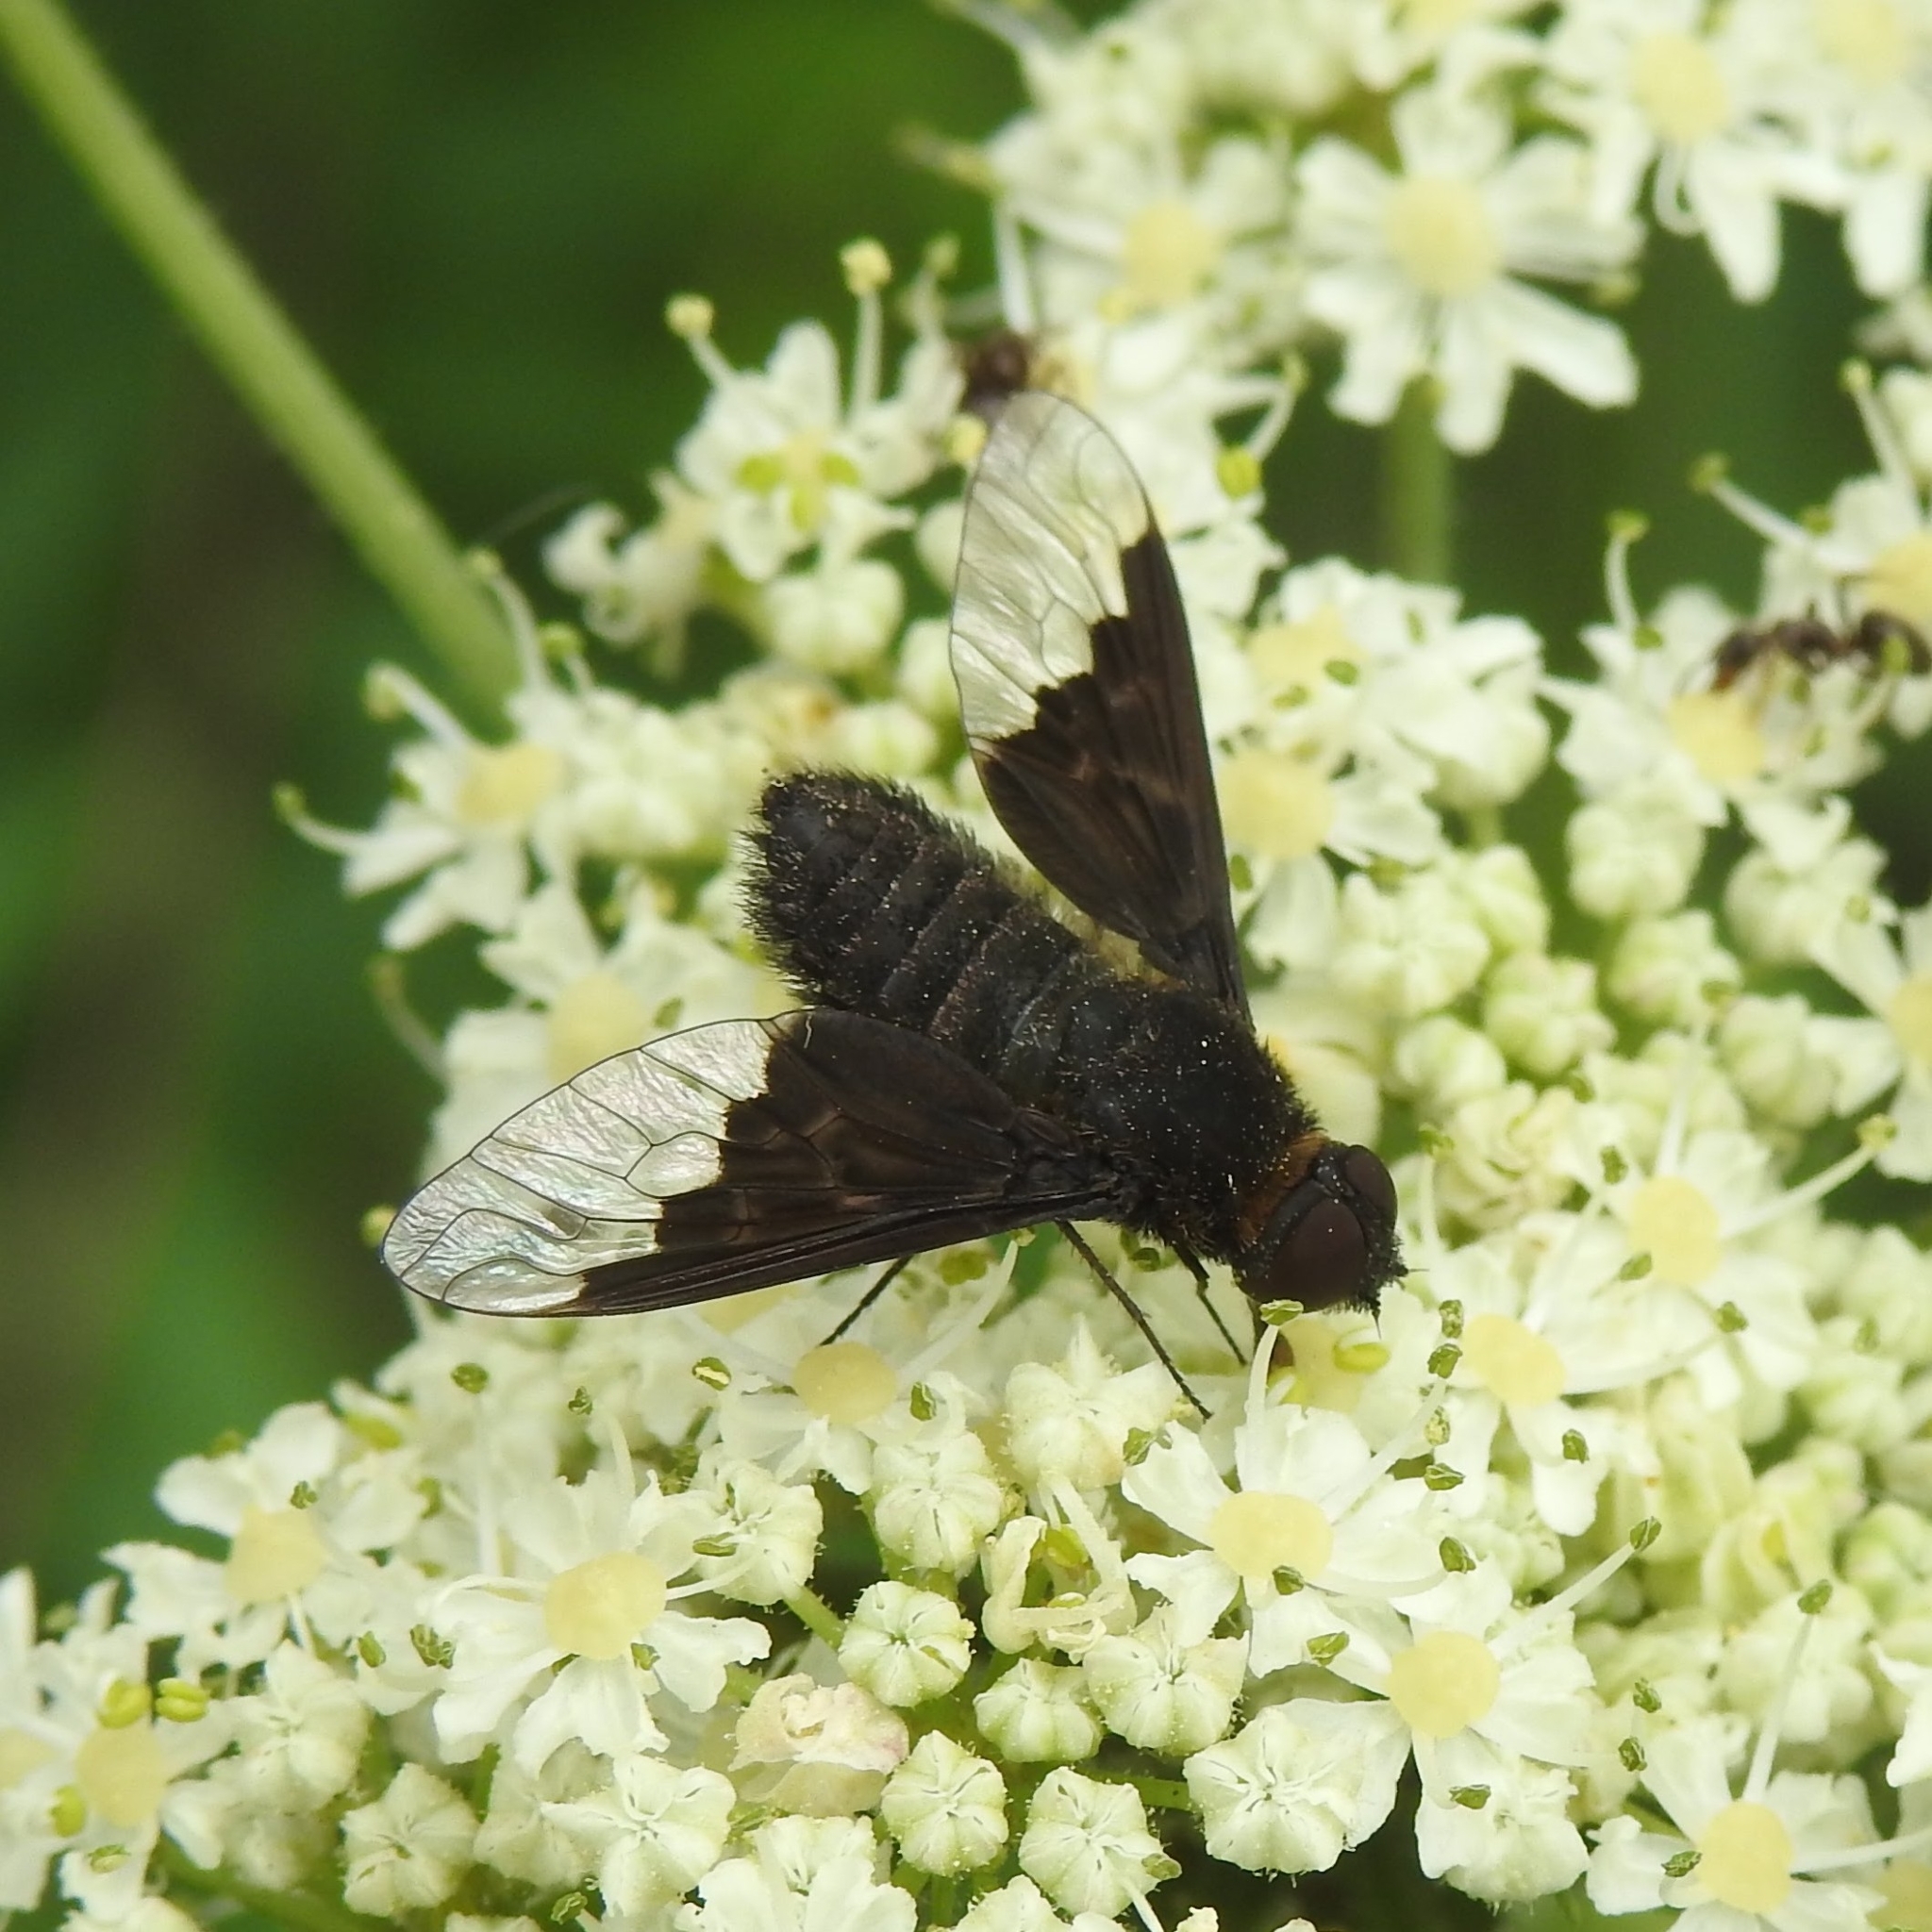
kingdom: Animalia
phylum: Arthropoda
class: Insecta
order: Diptera
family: Bombyliidae
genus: Hemipenthes
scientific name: Hemipenthes morio
